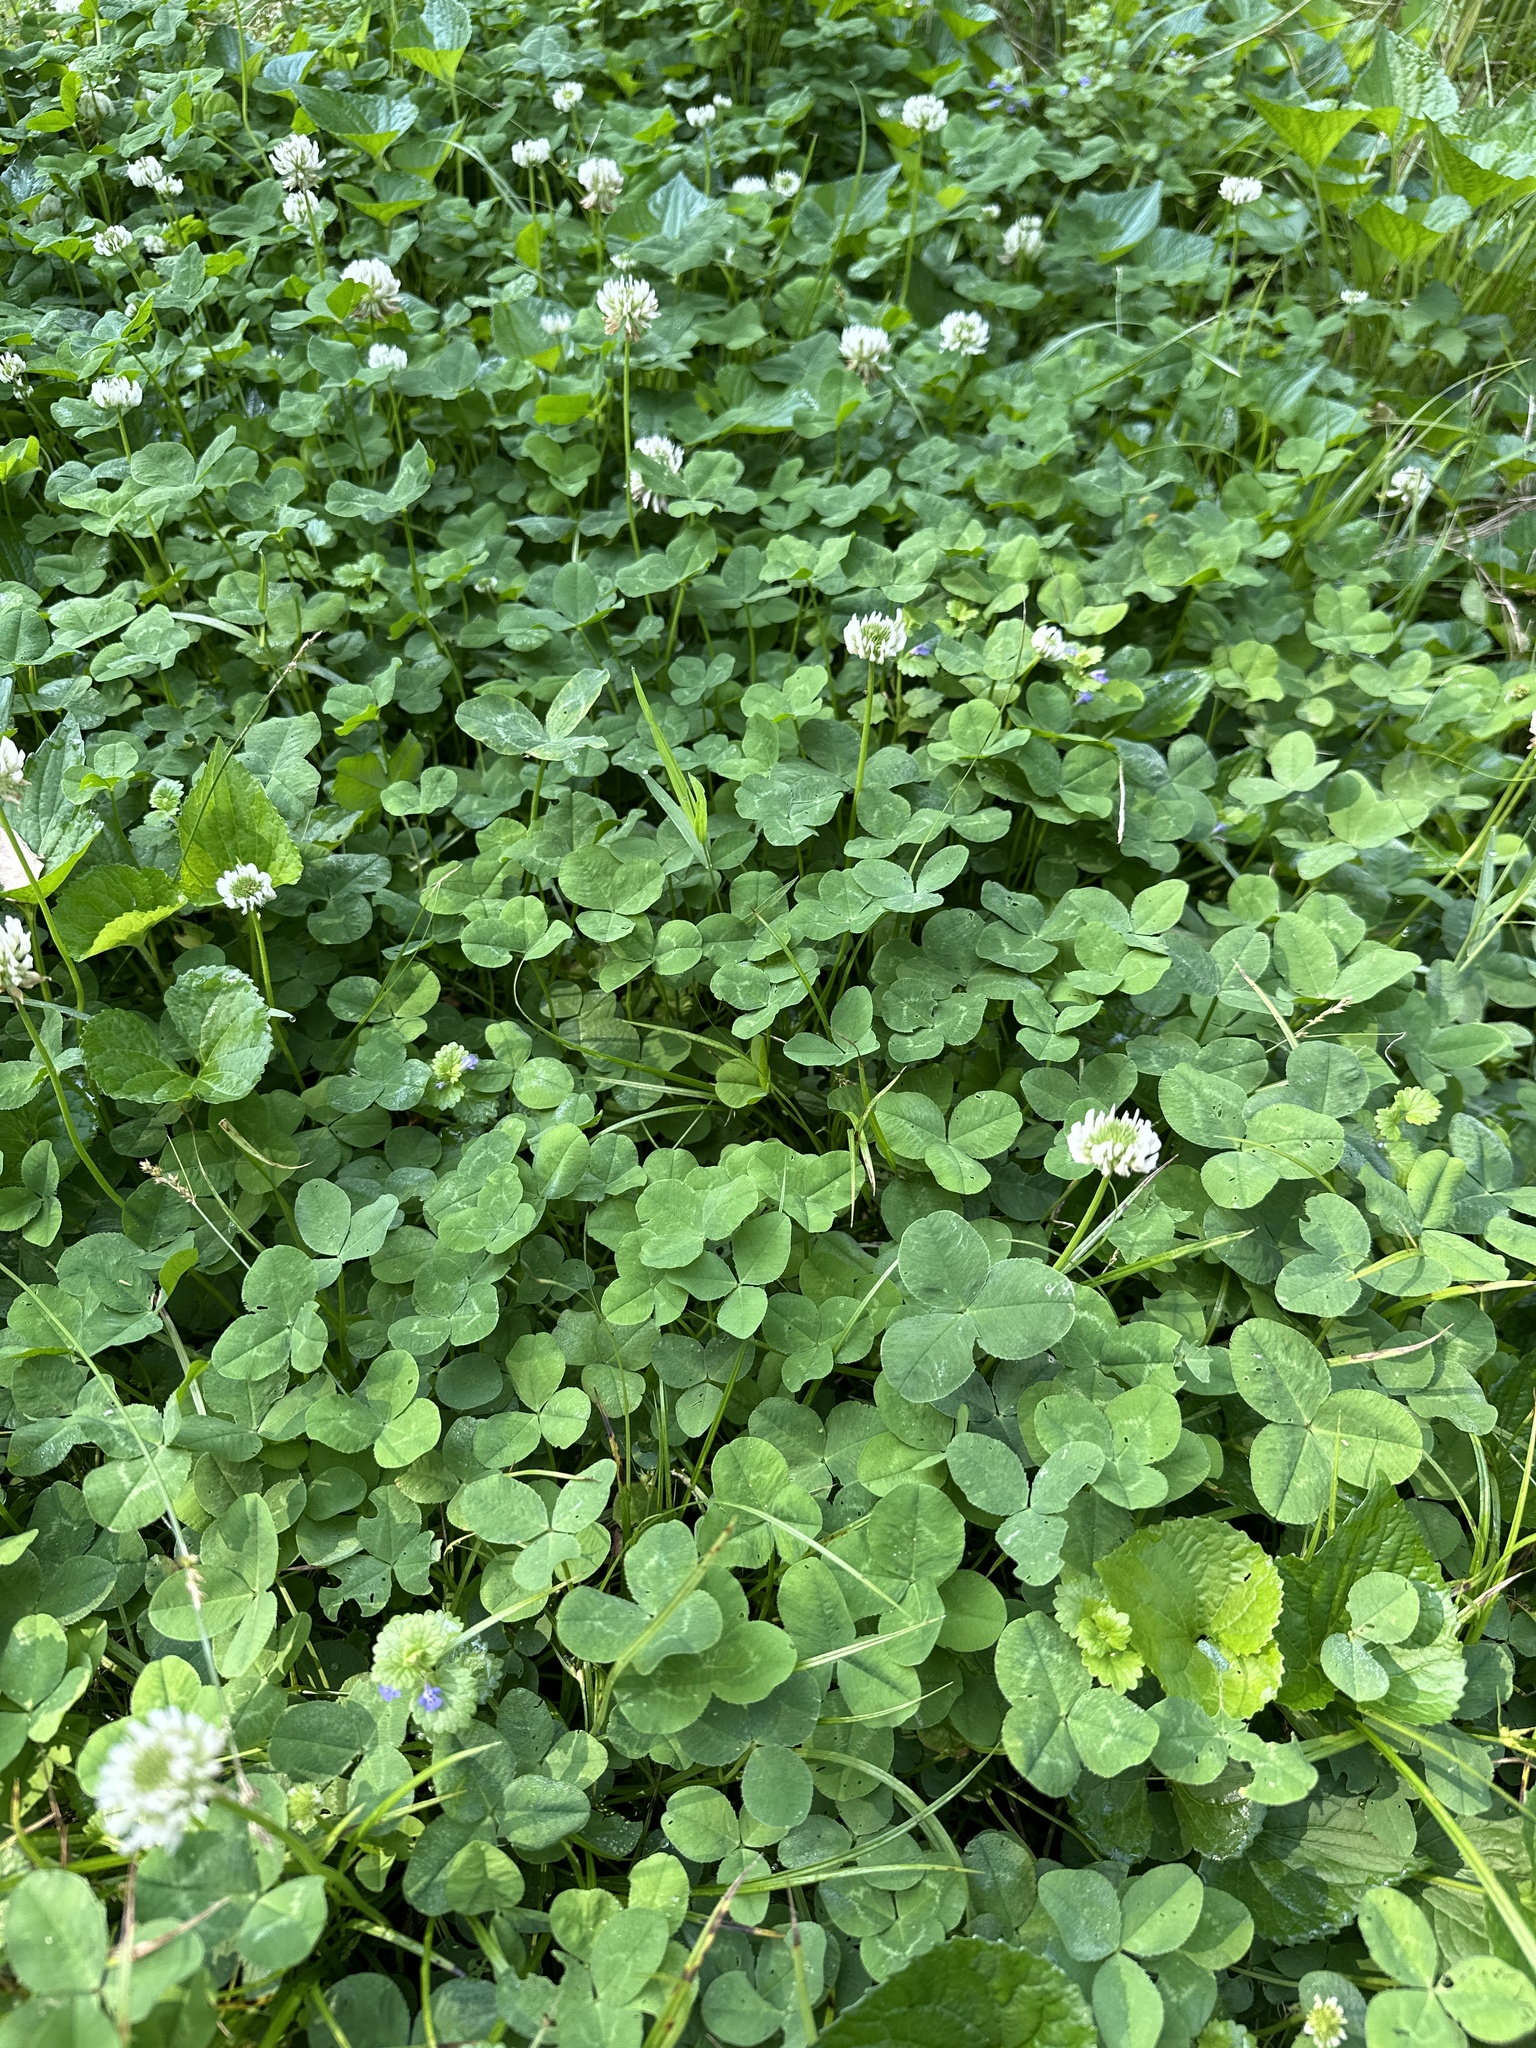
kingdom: Plantae
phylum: Tracheophyta
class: Magnoliopsida
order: Fabales
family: Fabaceae
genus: Trifolium
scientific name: Trifolium repens
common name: White clover
